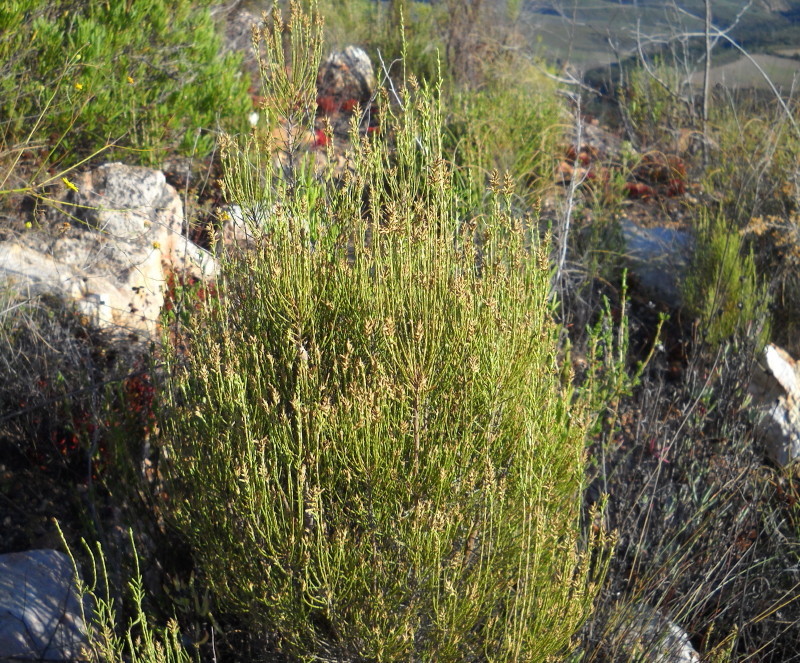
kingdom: Plantae
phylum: Tracheophyta
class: Magnoliopsida
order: Asterales
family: Asteraceae
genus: Dicerothamnus
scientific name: Dicerothamnus adpressus
